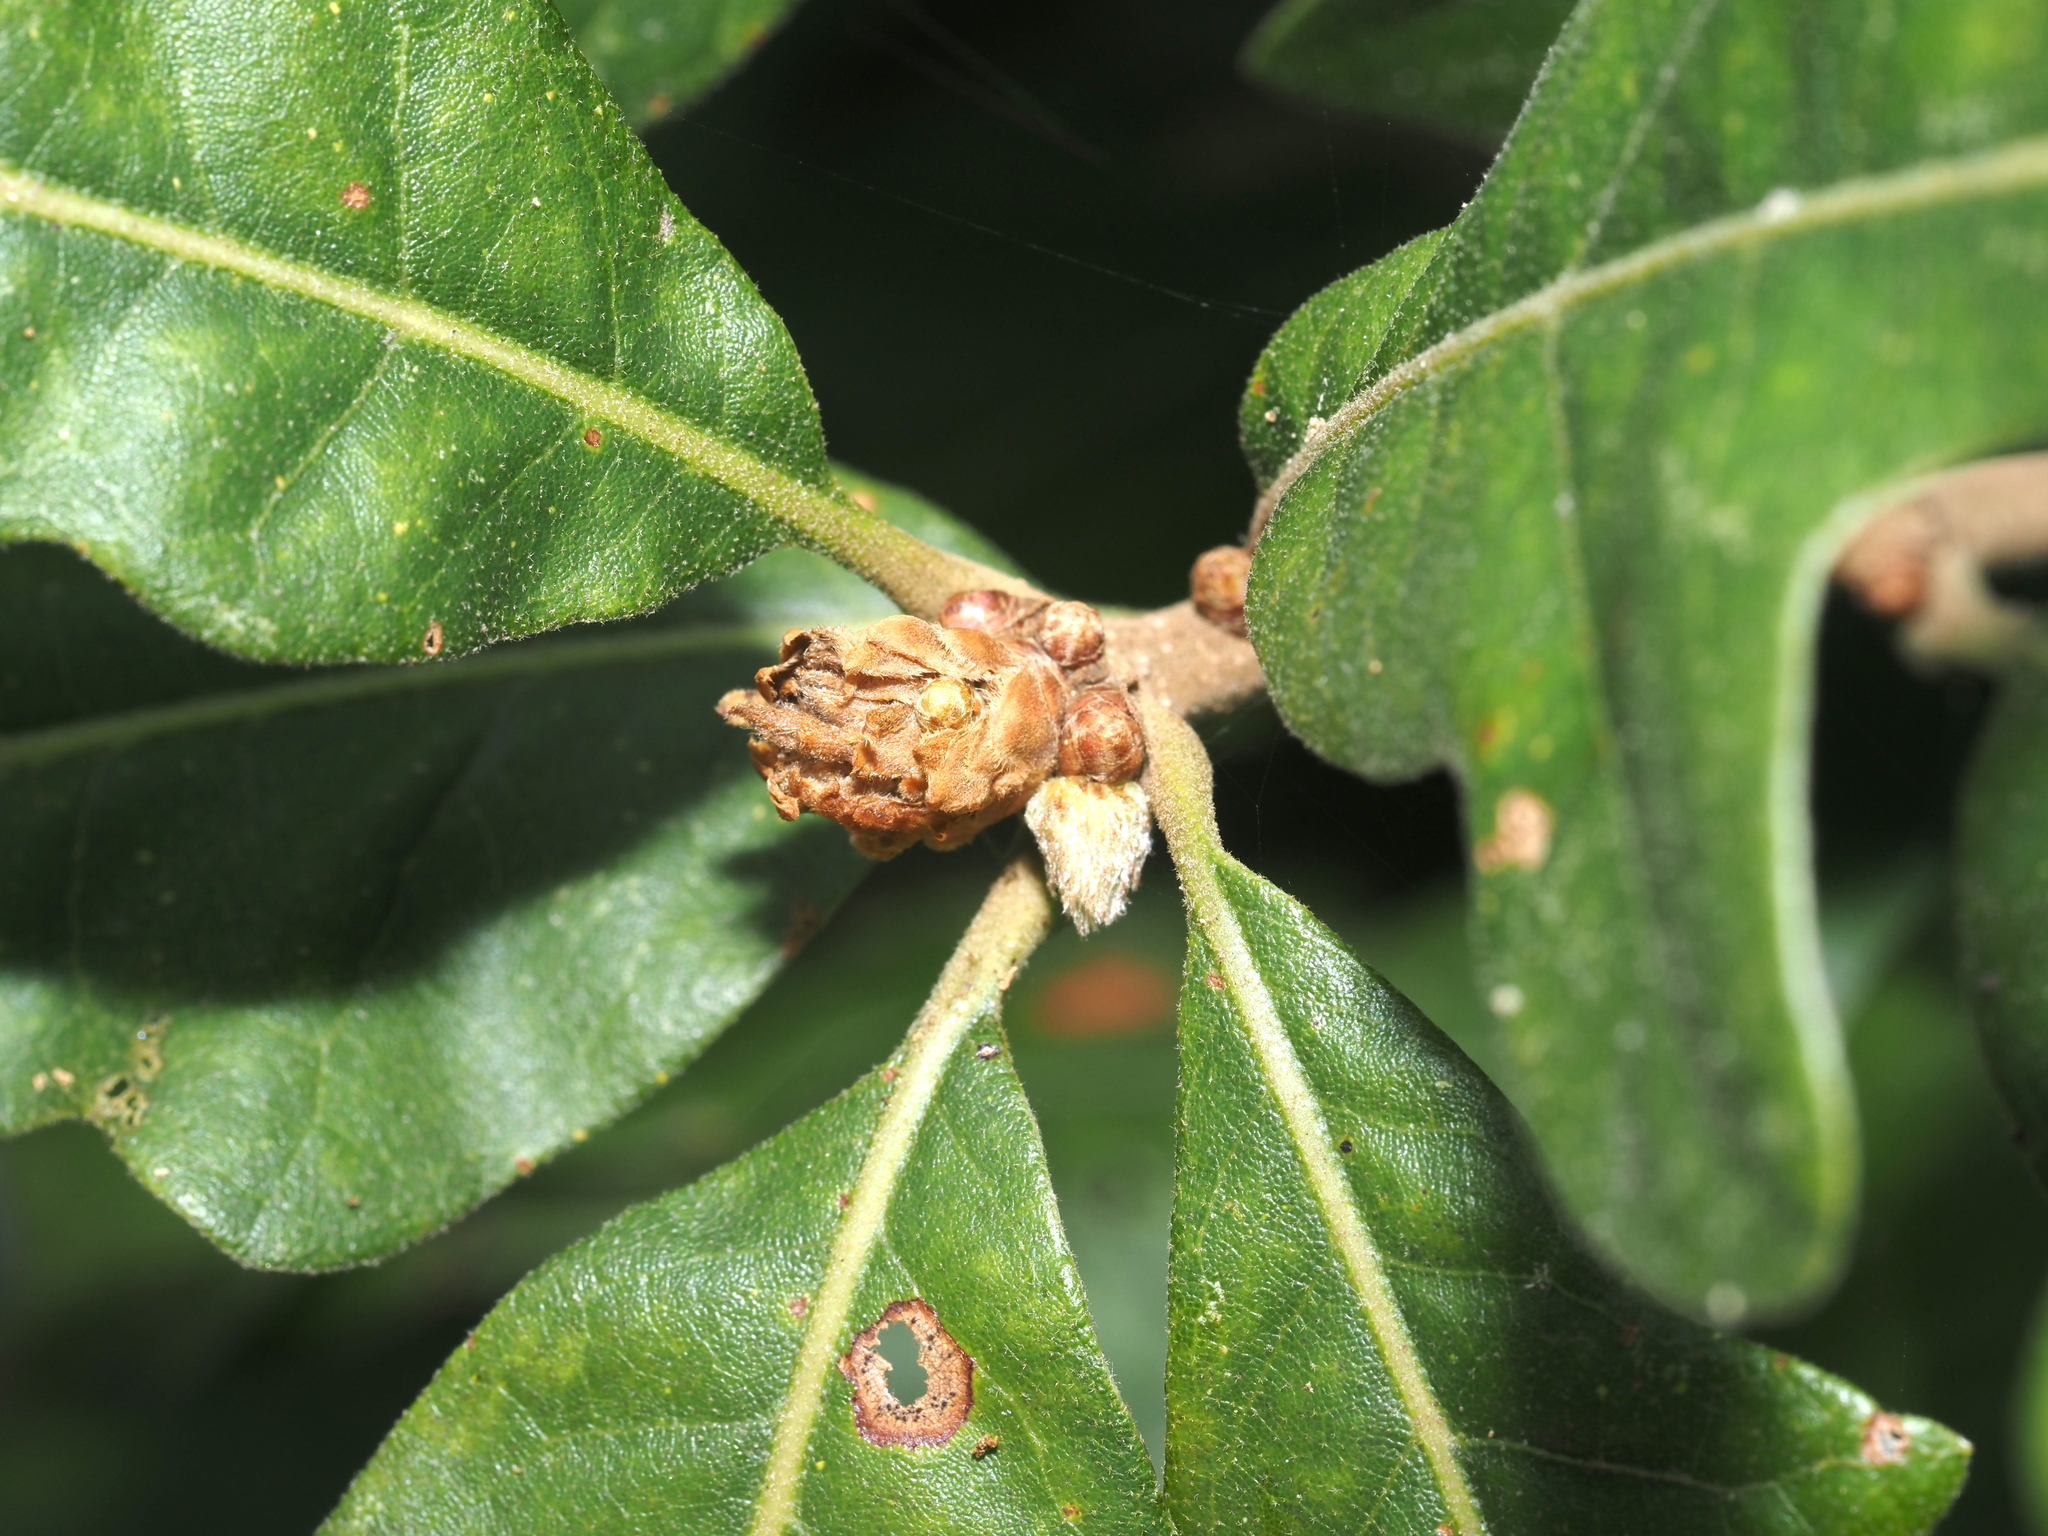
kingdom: Animalia
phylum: Arthropoda
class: Insecta
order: Hymenoptera
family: Cynipidae
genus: Andricus
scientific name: Andricus
